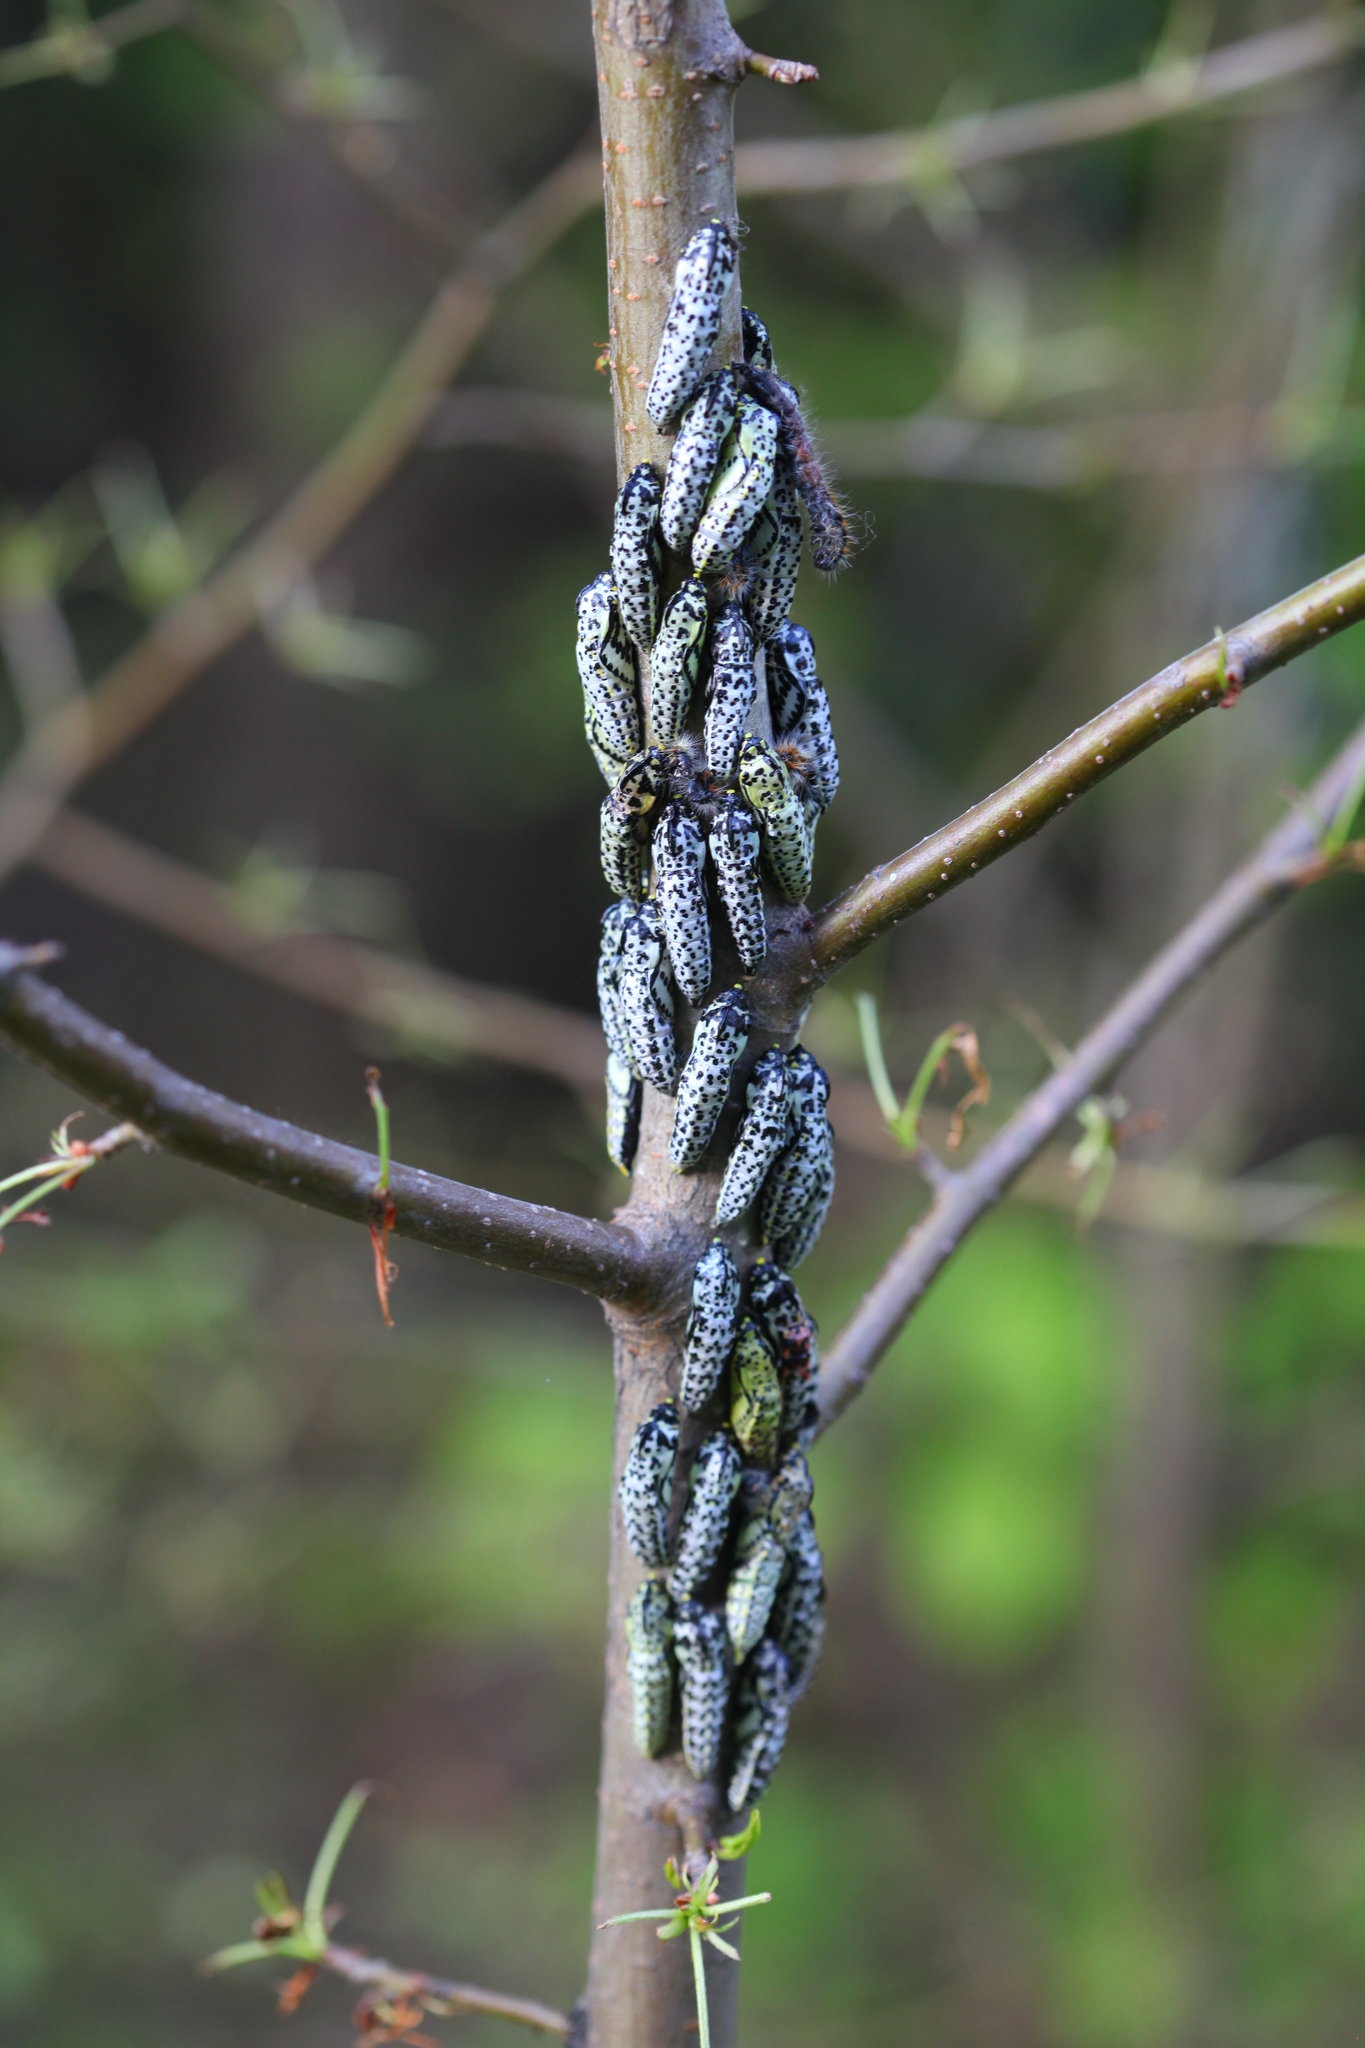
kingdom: Animalia
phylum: Arthropoda
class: Insecta
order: Lepidoptera
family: Pieridae
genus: Aporia
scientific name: Aporia crataegi
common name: Black-veined white
